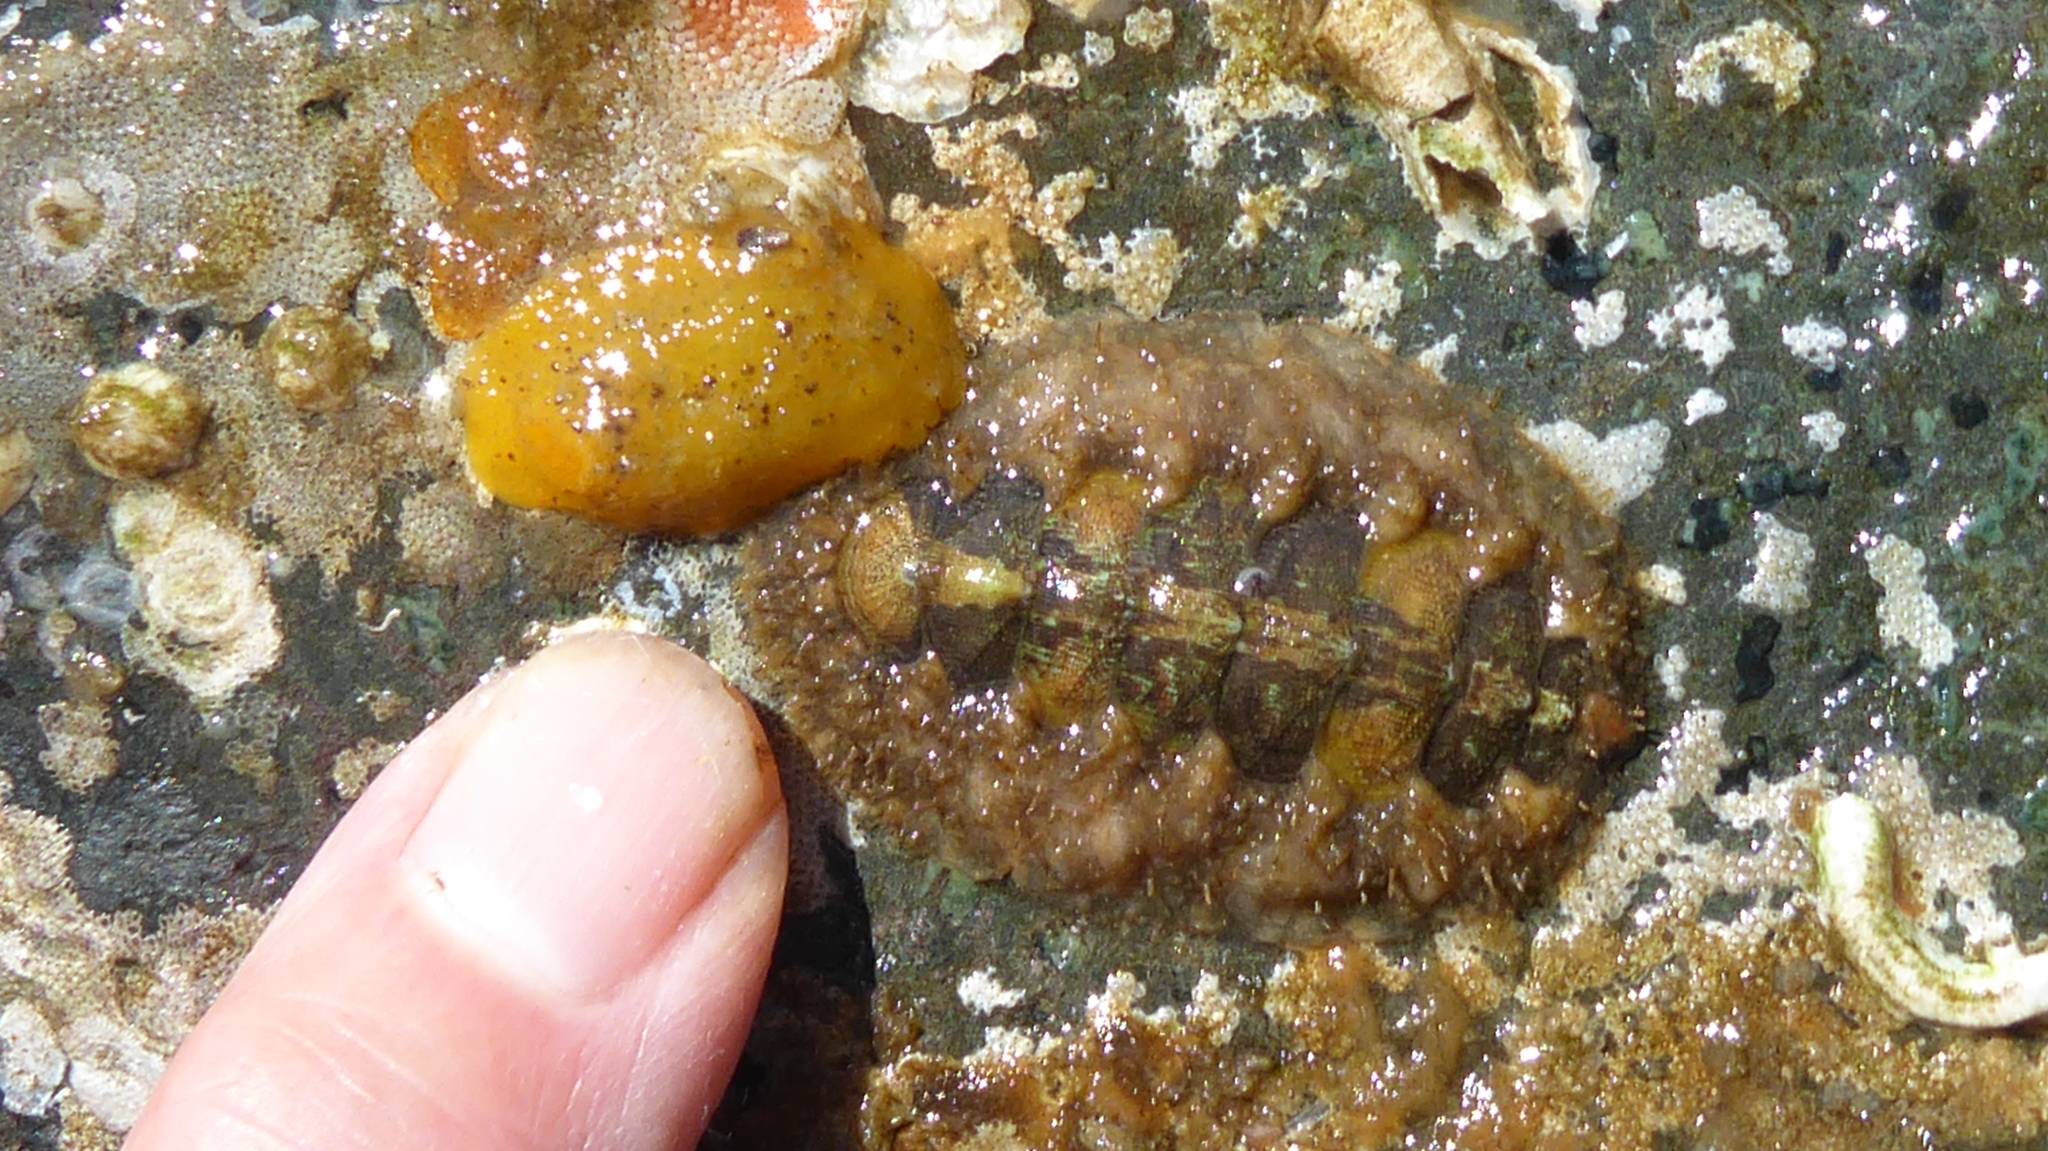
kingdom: Animalia
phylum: Mollusca
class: Gastropoda
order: Nudibranchia
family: Dorididae
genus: Doris
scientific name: Doris montereyensis
